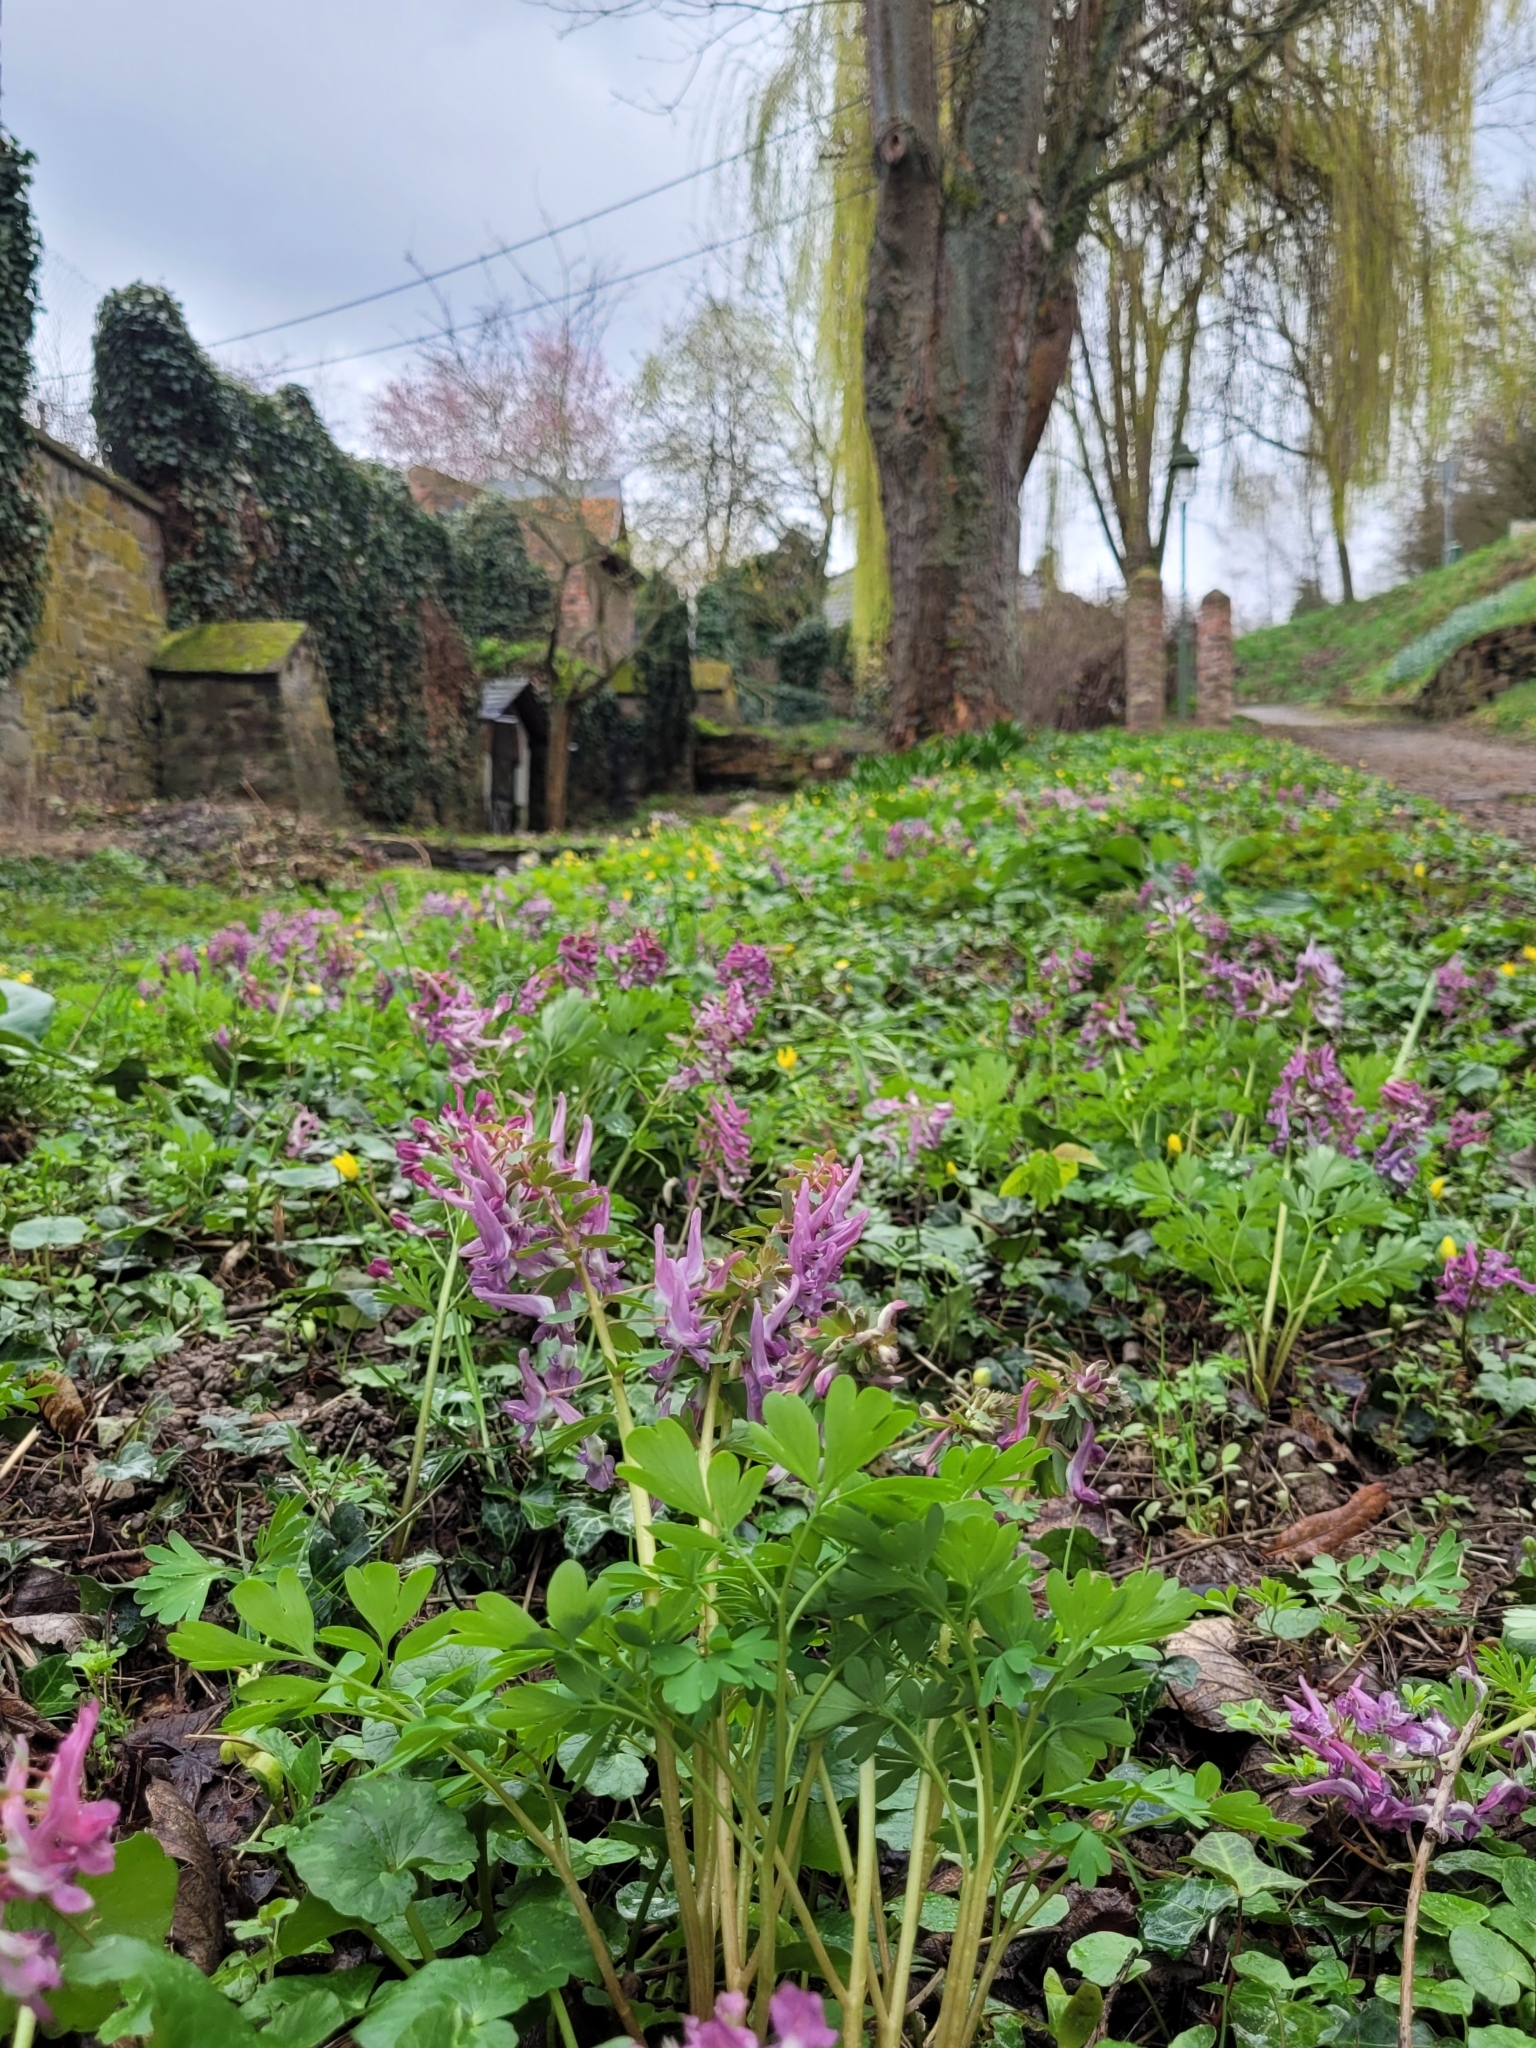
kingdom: Plantae
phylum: Tracheophyta
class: Magnoliopsida
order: Ranunculales
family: Papaveraceae
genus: Corydalis
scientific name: Corydalis solida
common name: Bird-in-a-bush
